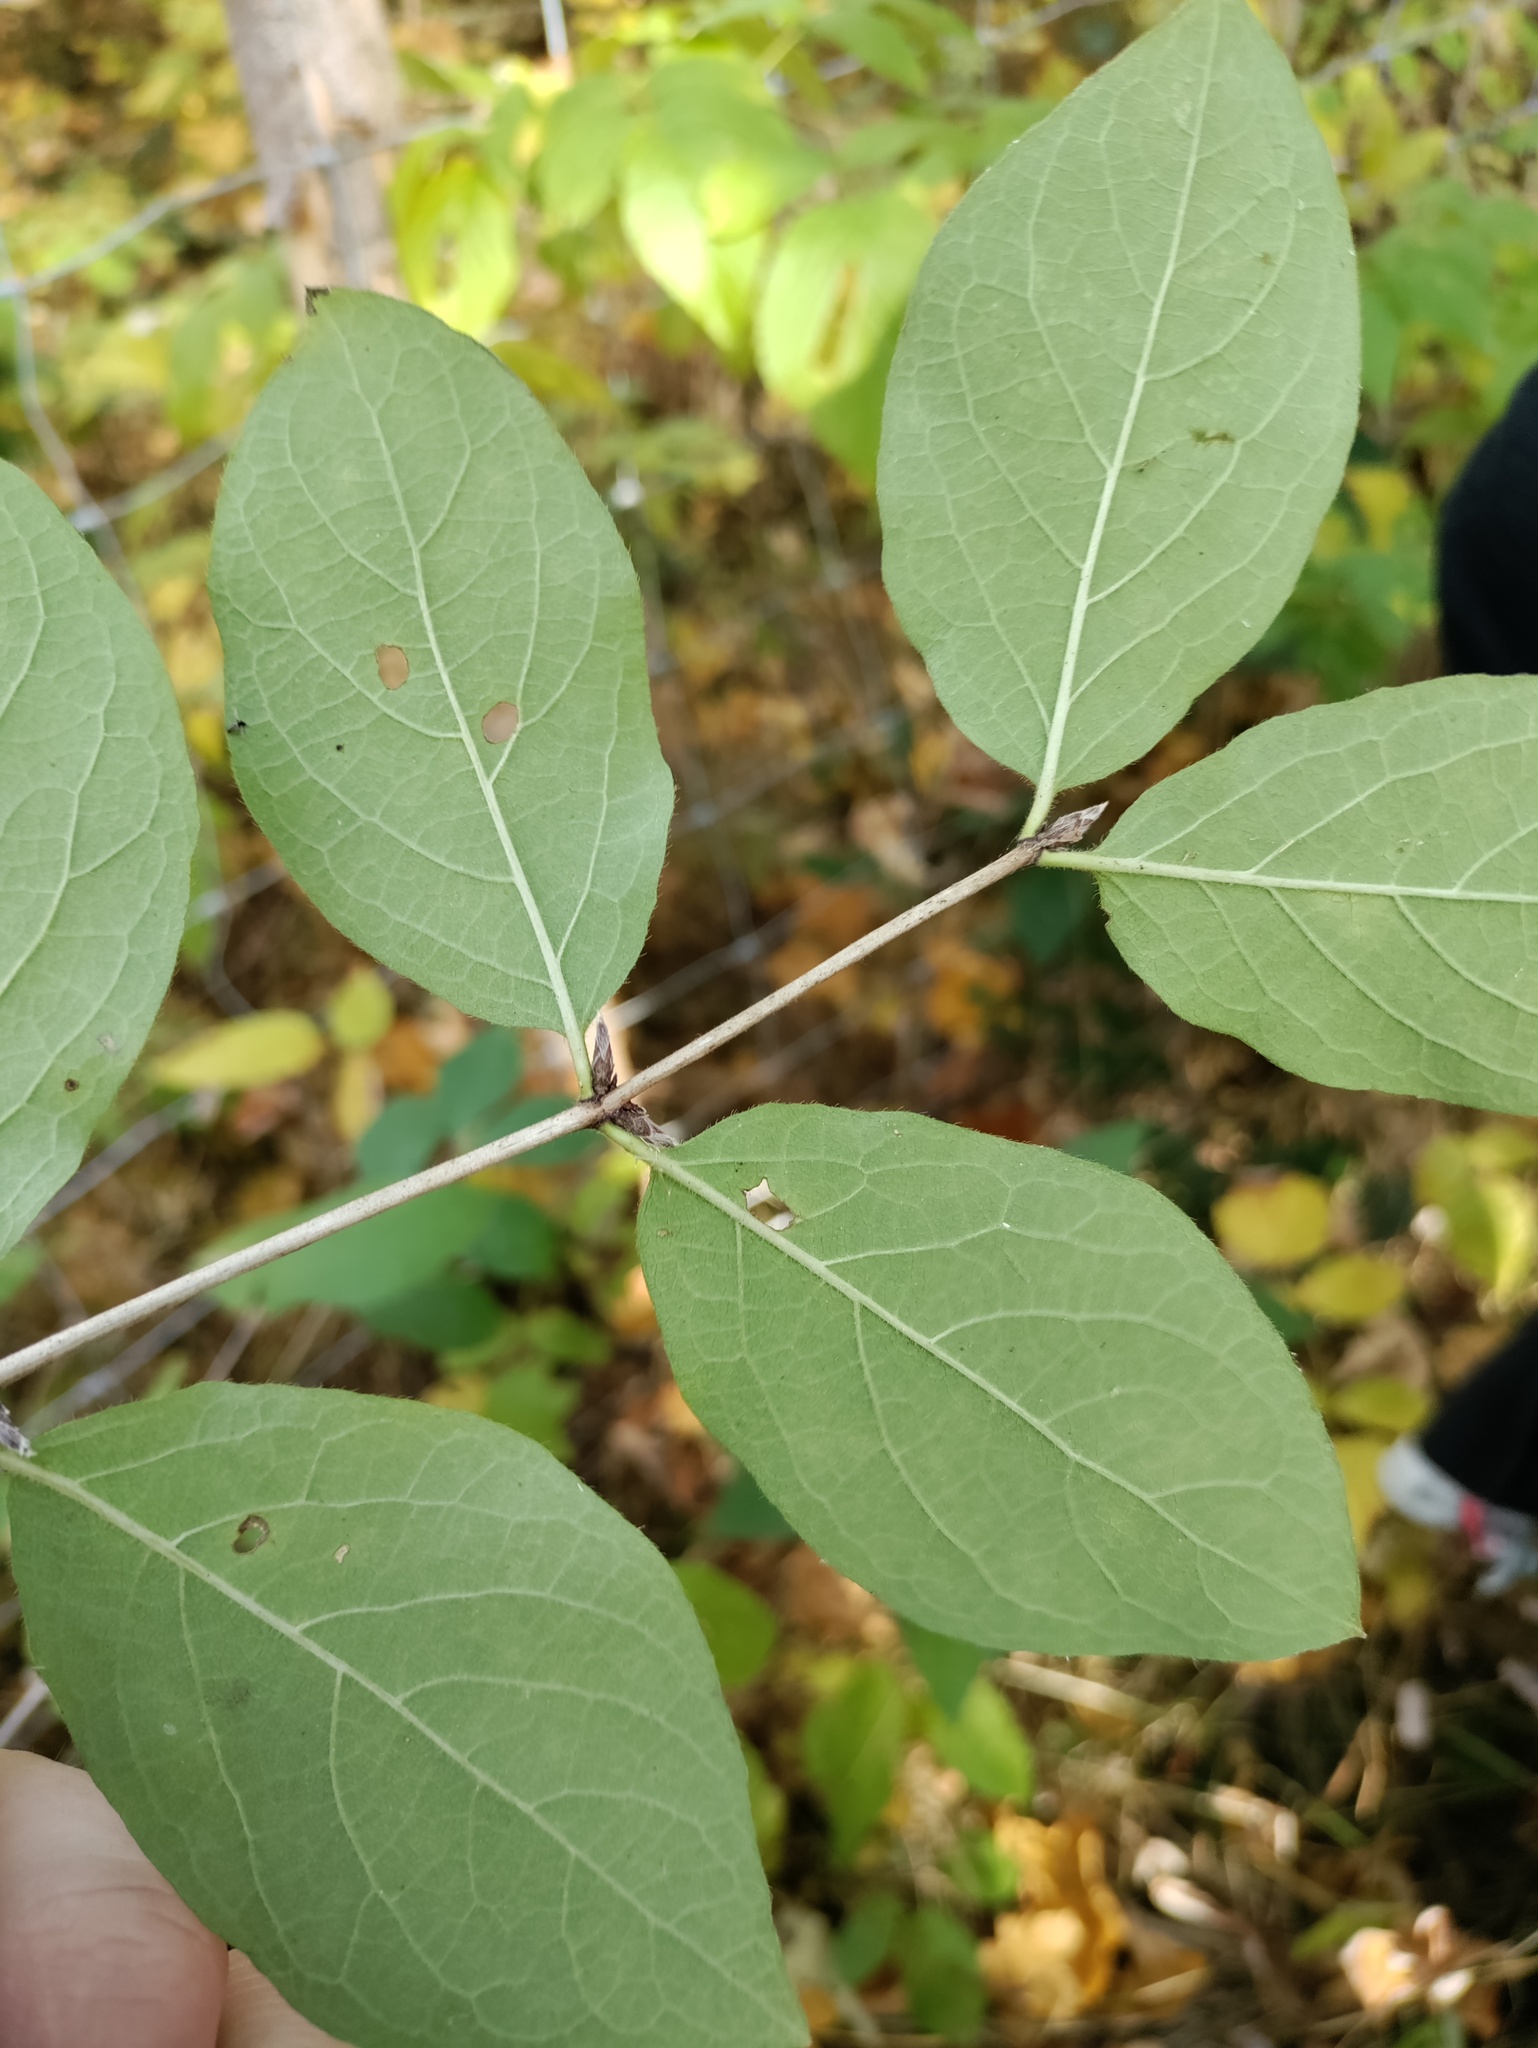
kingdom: Plantae
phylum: Tracheophyta
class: Magnoliopsida
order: Dipsacales
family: Caprifoliaceae
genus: Lonicera
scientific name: Lonicera xylosteum
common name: Fly honeysuckle
